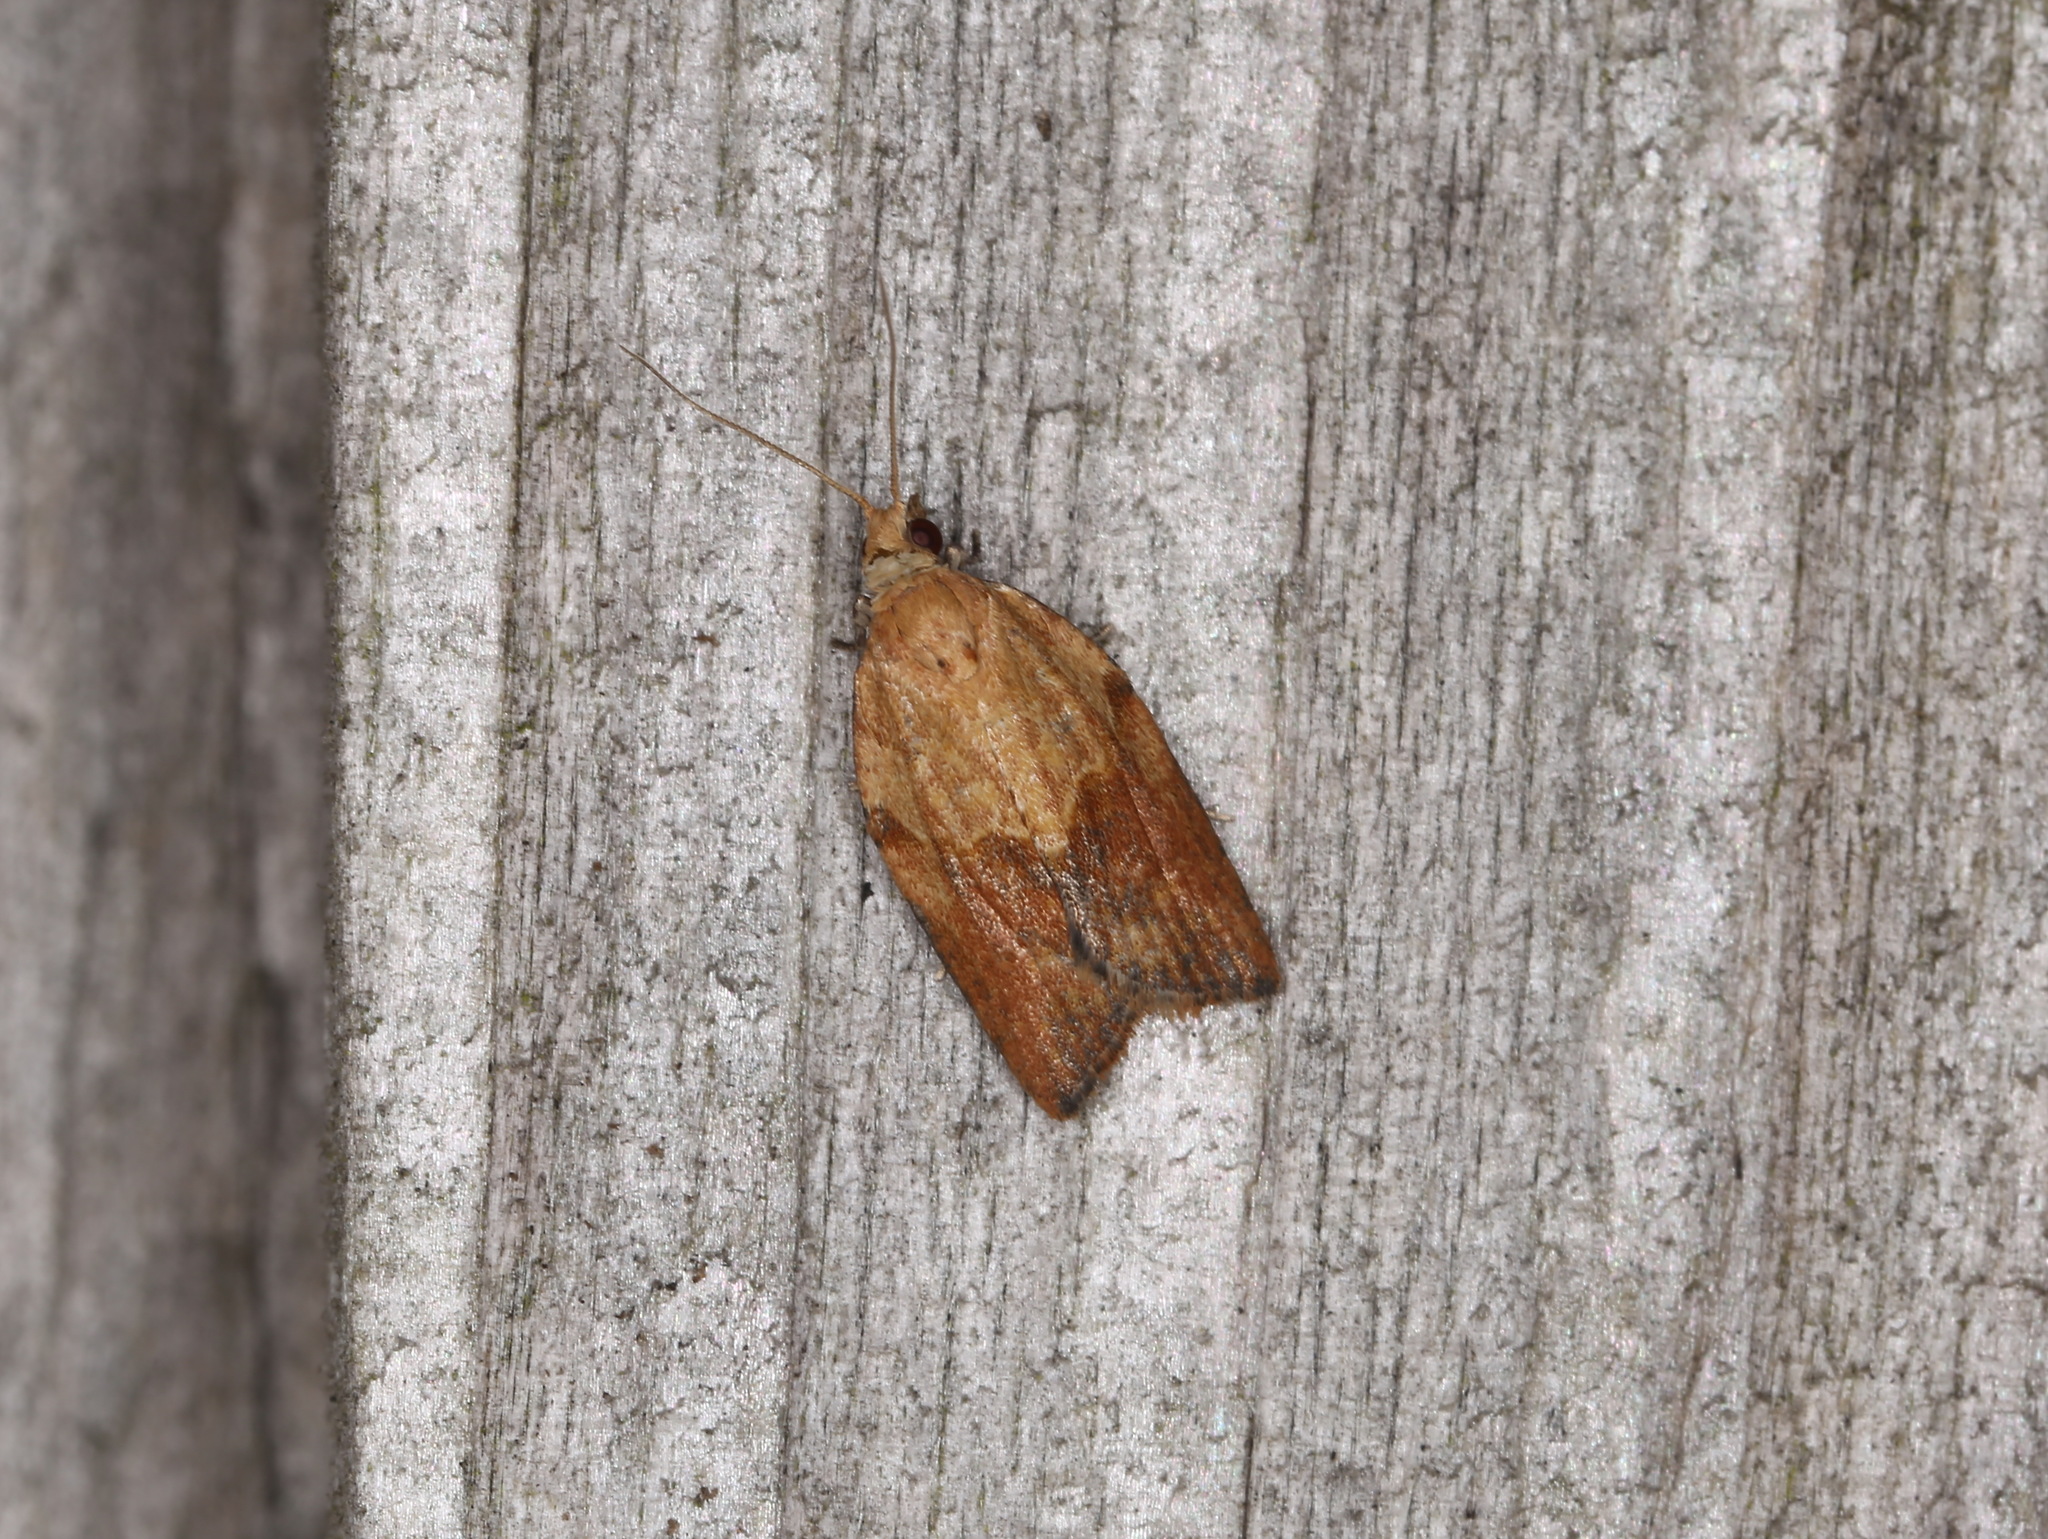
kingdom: Animalia
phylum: Arthropoda
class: Insecta
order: Lepidoptera
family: Tortricidae
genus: Epiphyas
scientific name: Epiphyas postvittana
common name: Light brown apple moth
